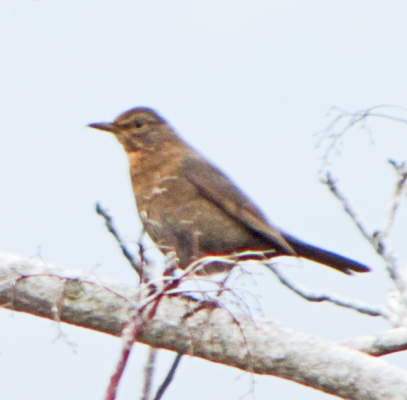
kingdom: Animalia
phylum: Chordata
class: Aves
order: Passeriformes
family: Turdidae
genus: Turdus
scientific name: Turdus merula
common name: Common blackbird
